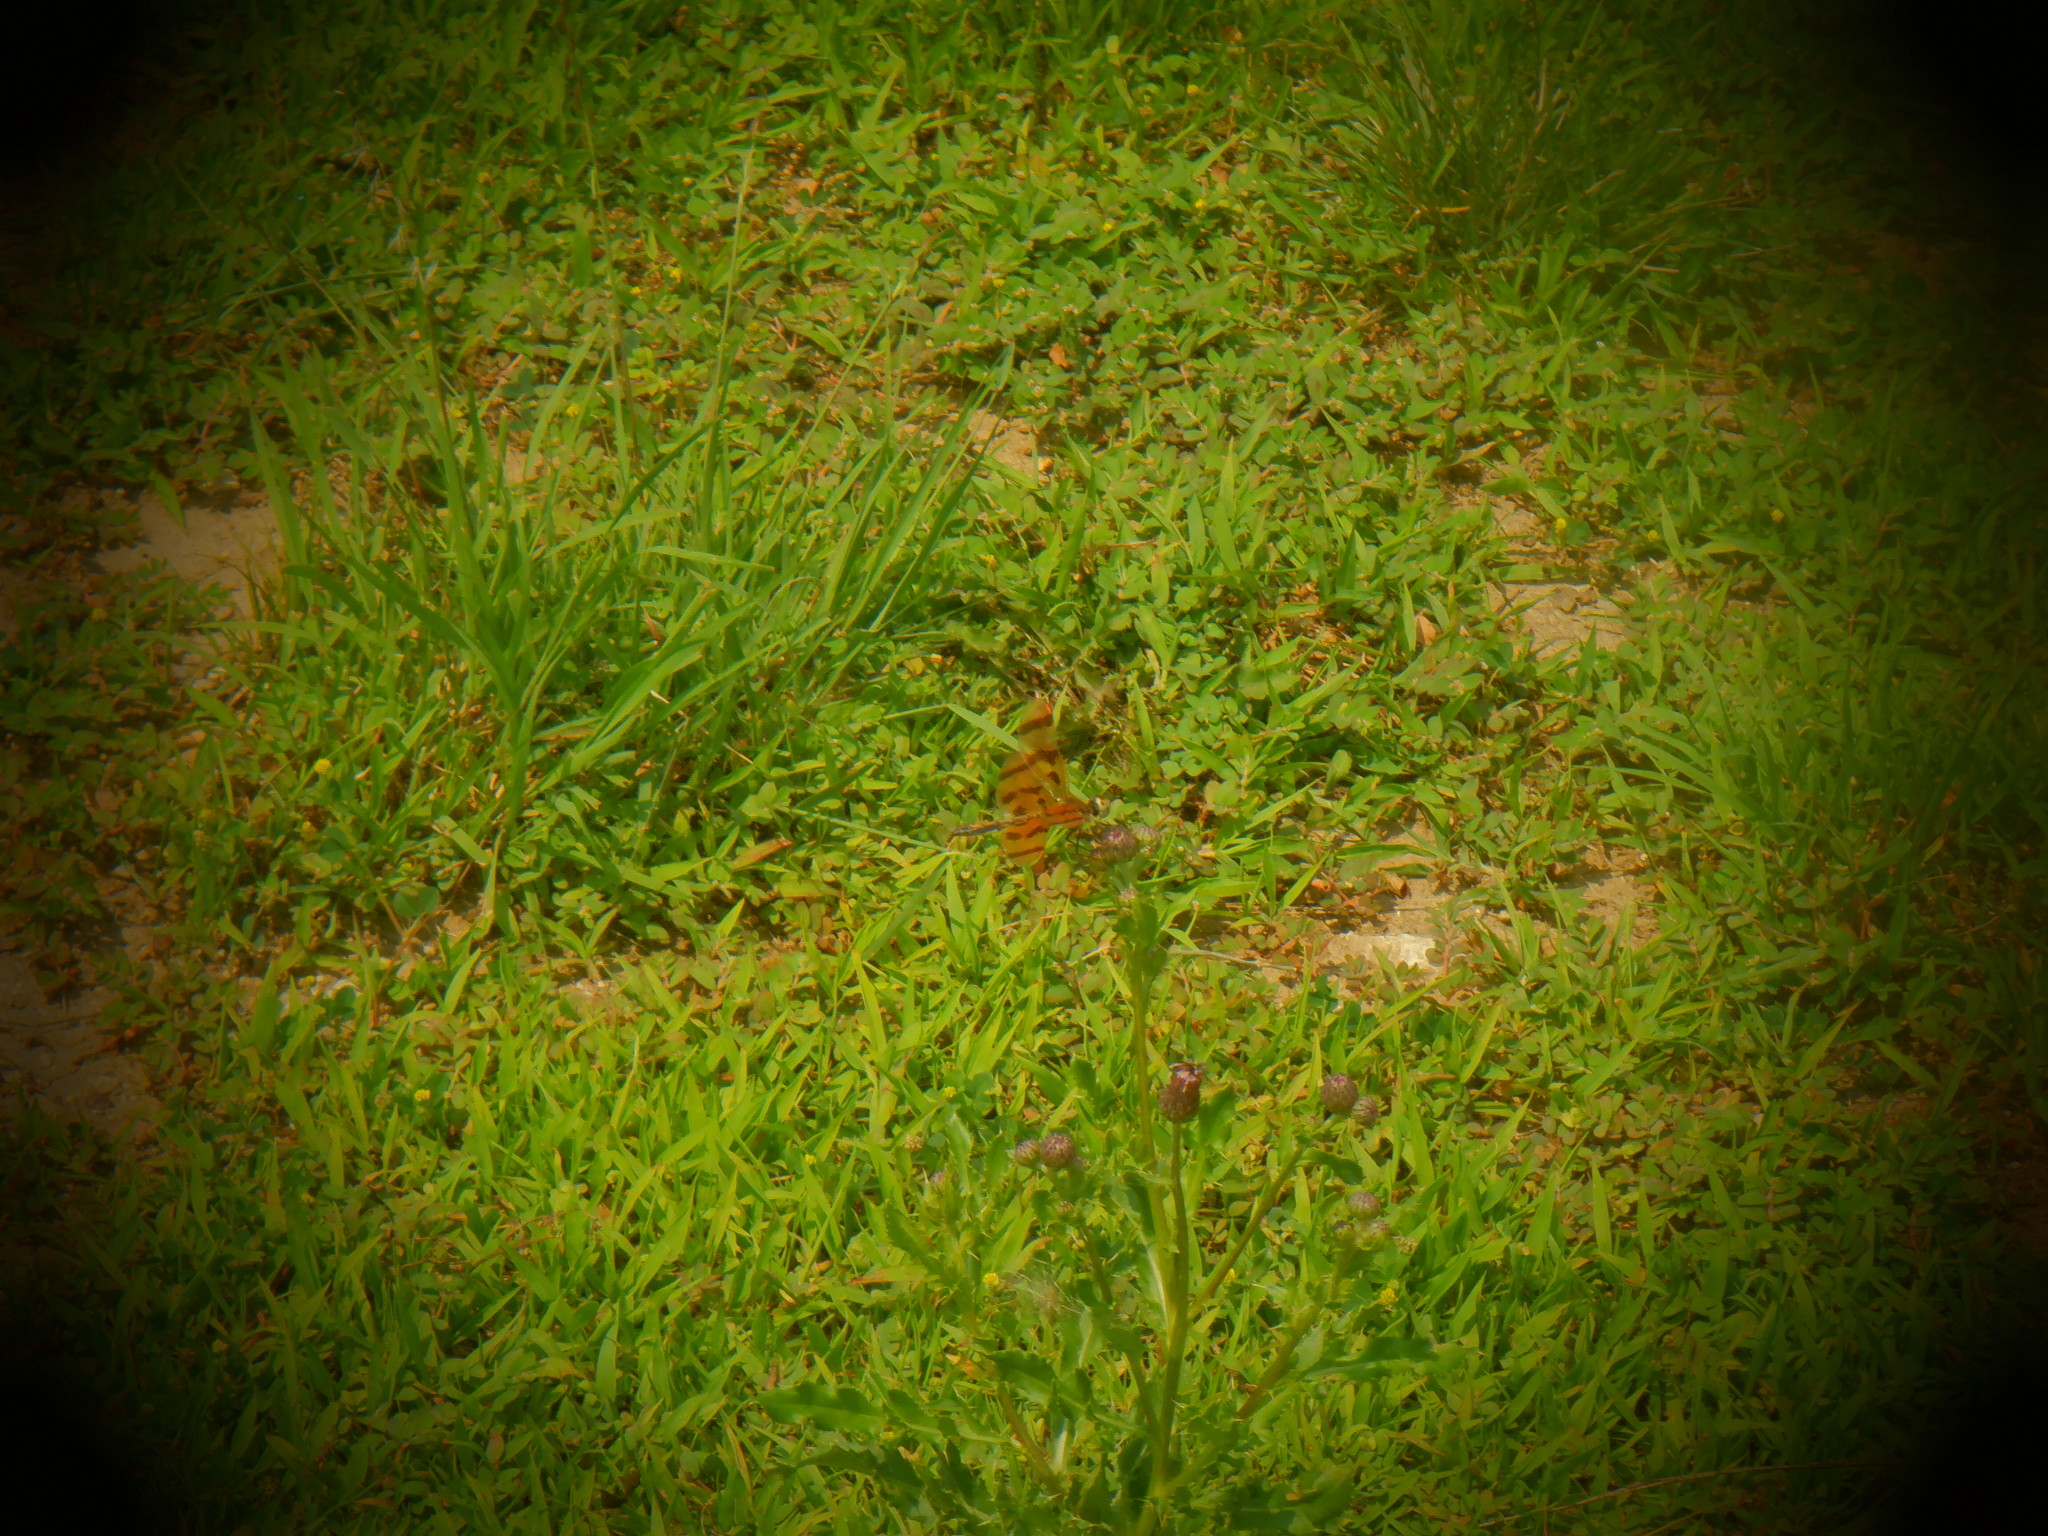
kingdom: Animalia
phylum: Arthropoda
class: Insecta
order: Odonata
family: Libellulidae
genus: Celithemis
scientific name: Celithemis eponina
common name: Halloween pennant
